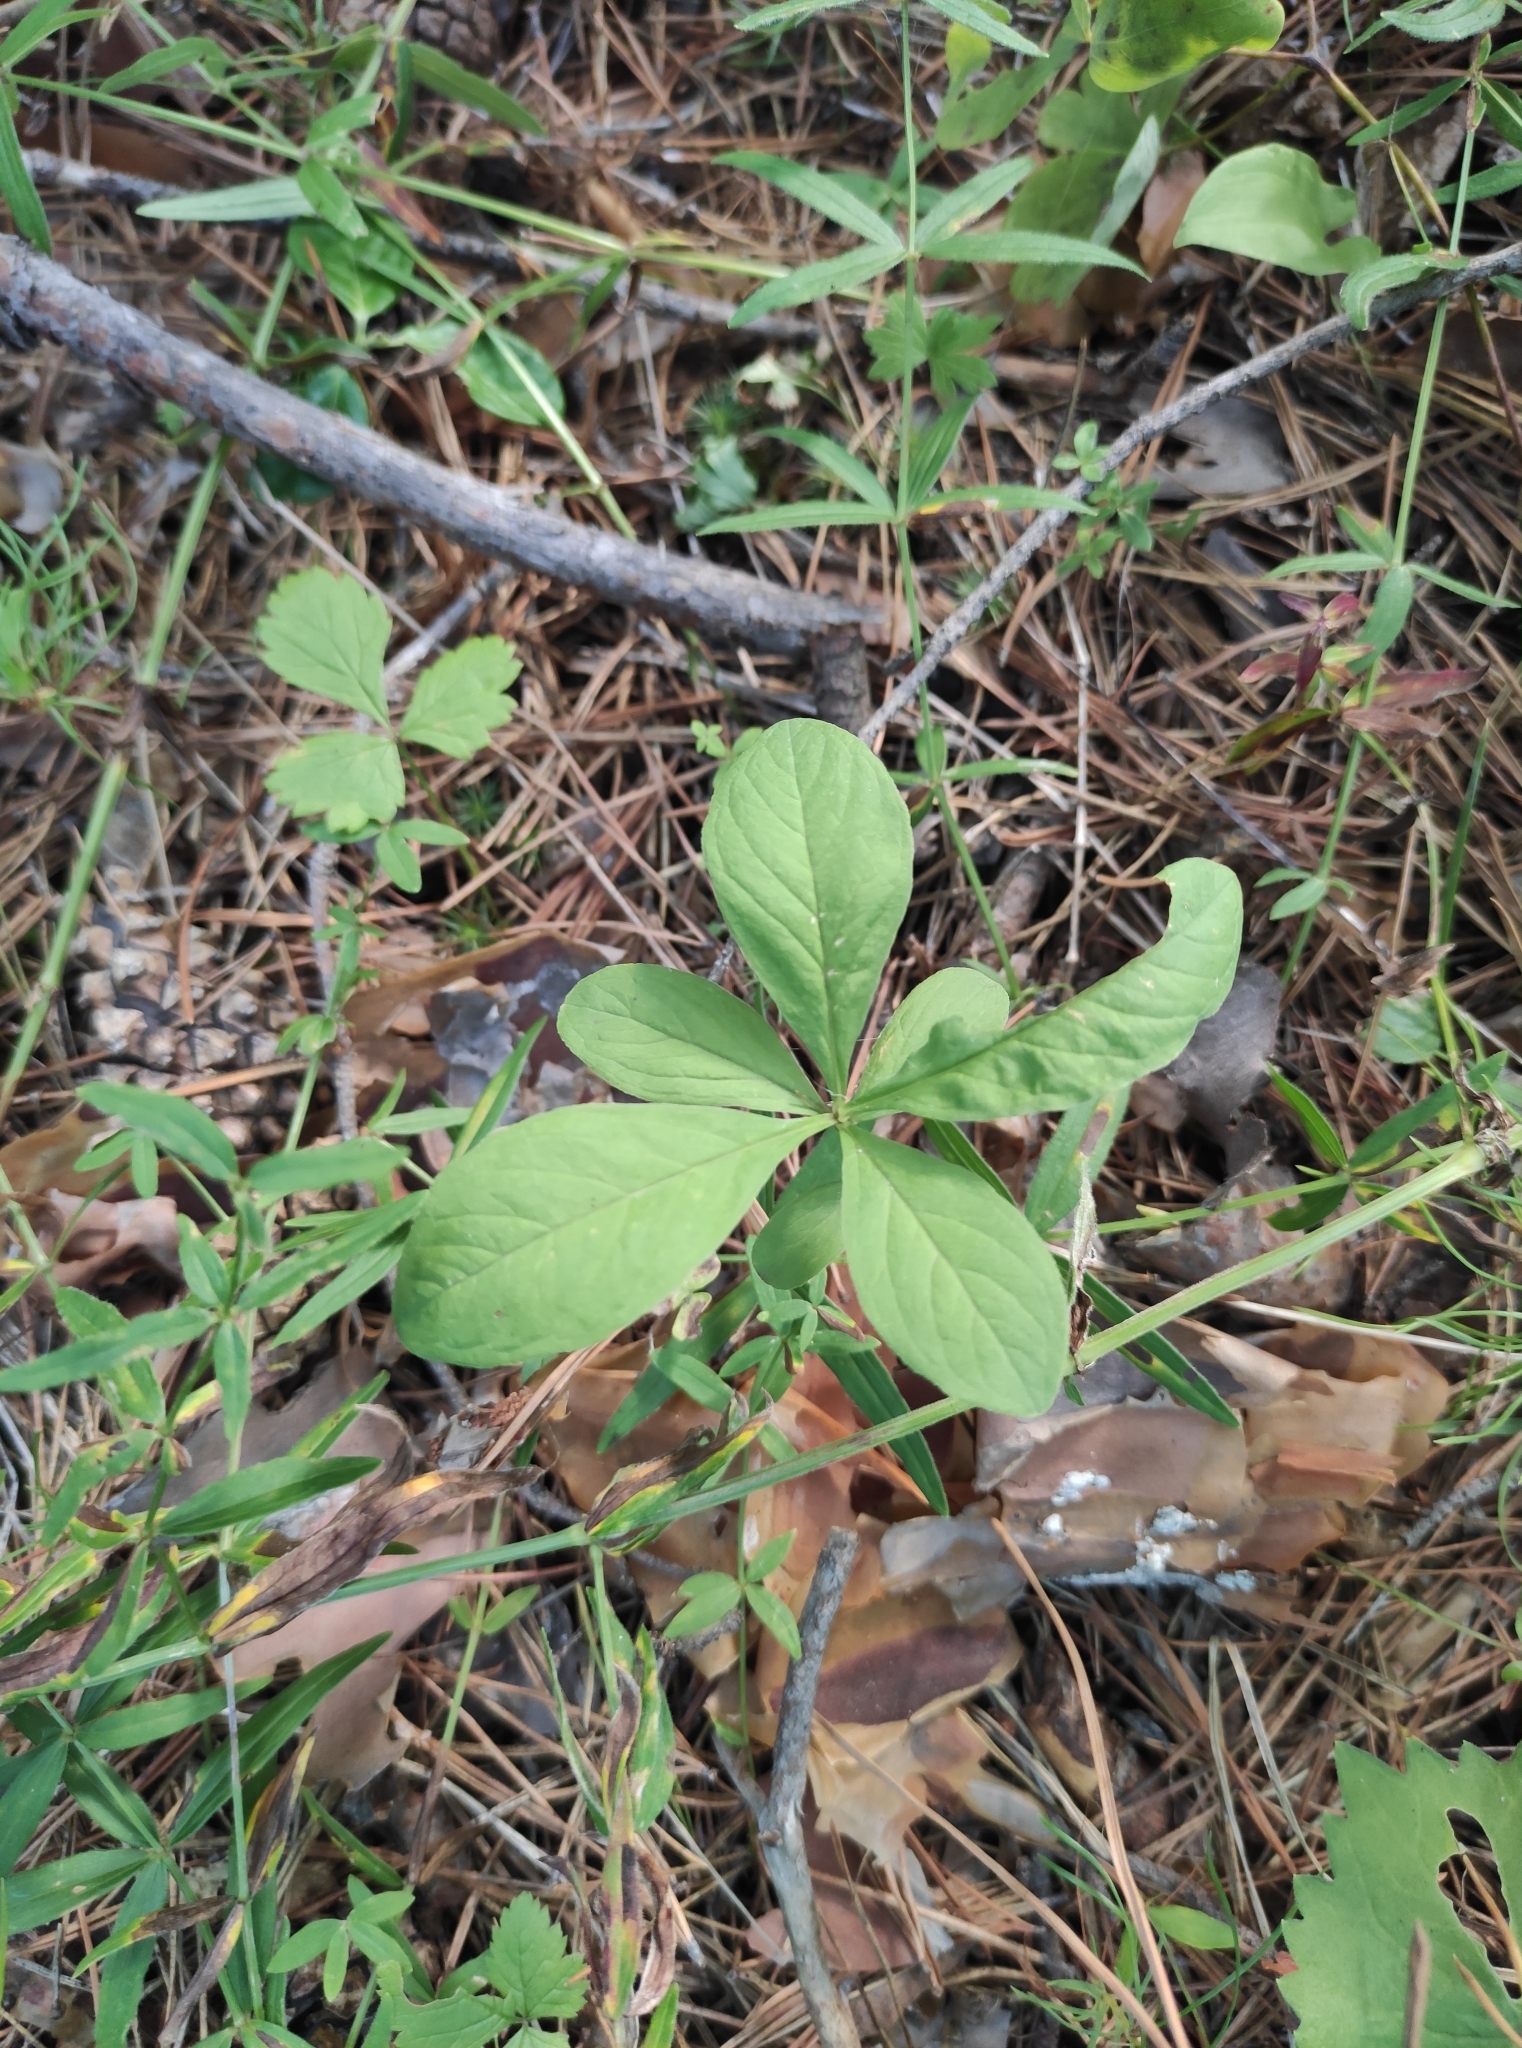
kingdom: Plantae
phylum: Tracheophyta
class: Magnoliopsida
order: Ericales
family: Primulaceae
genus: Lysimachia
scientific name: Lysimachia europaea
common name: Arctic starflower
